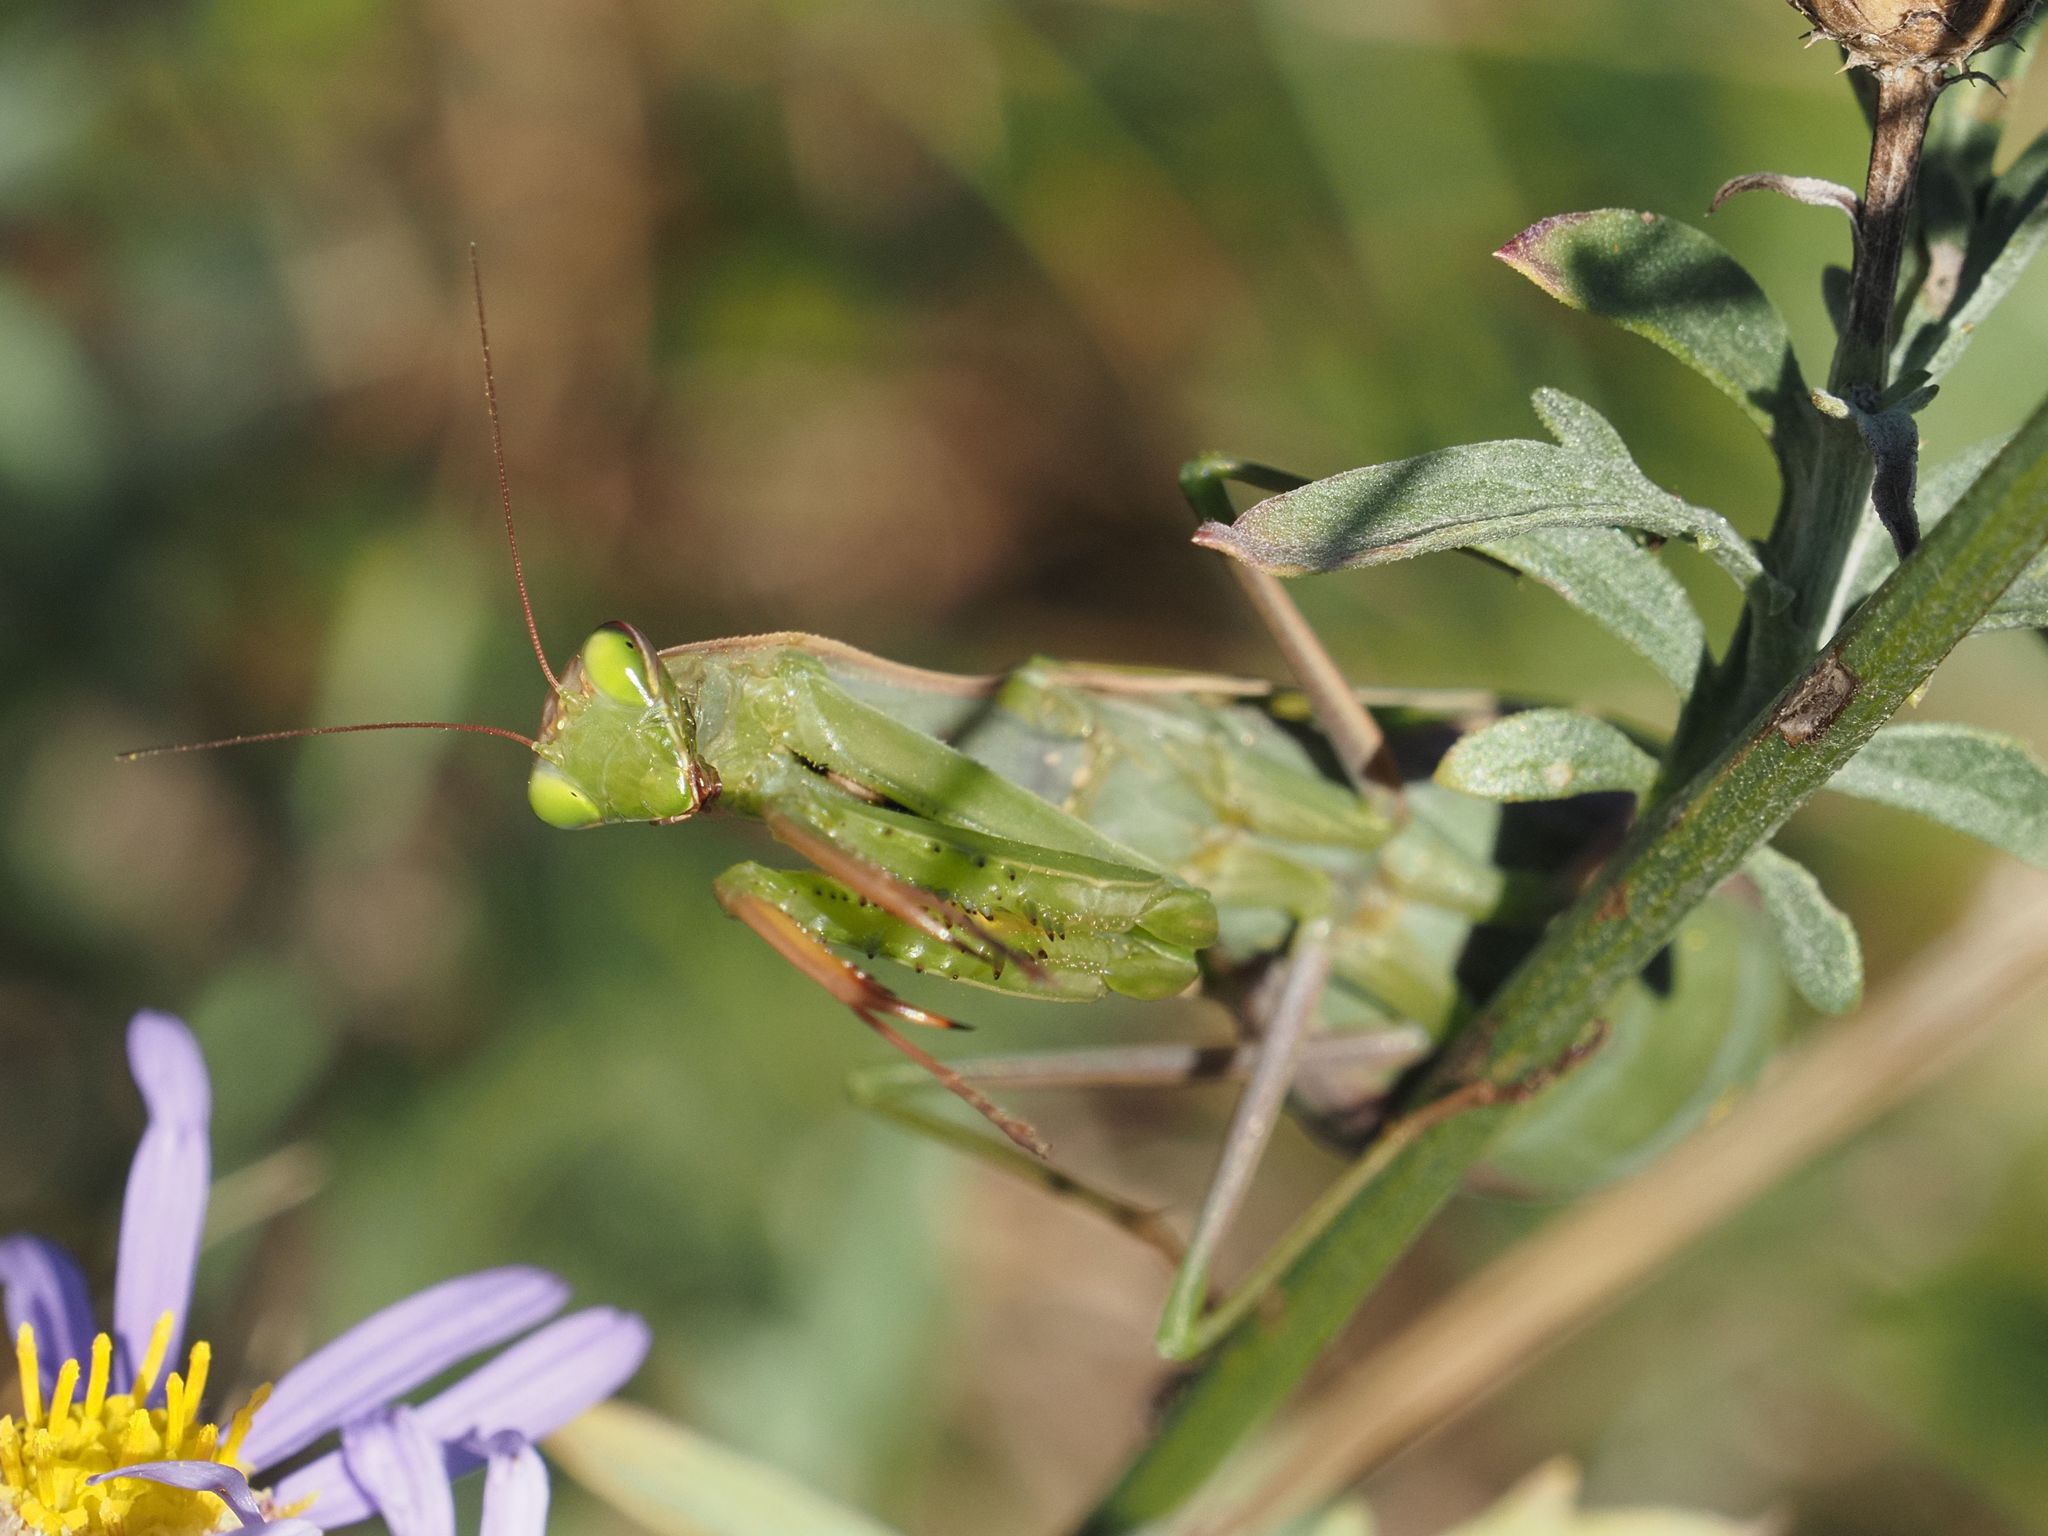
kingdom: Animalia
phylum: Arthropoda
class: Insecta
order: Mantodea
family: Mantidae
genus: Mantis
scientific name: Mantis religiosa
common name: Praying mantis
